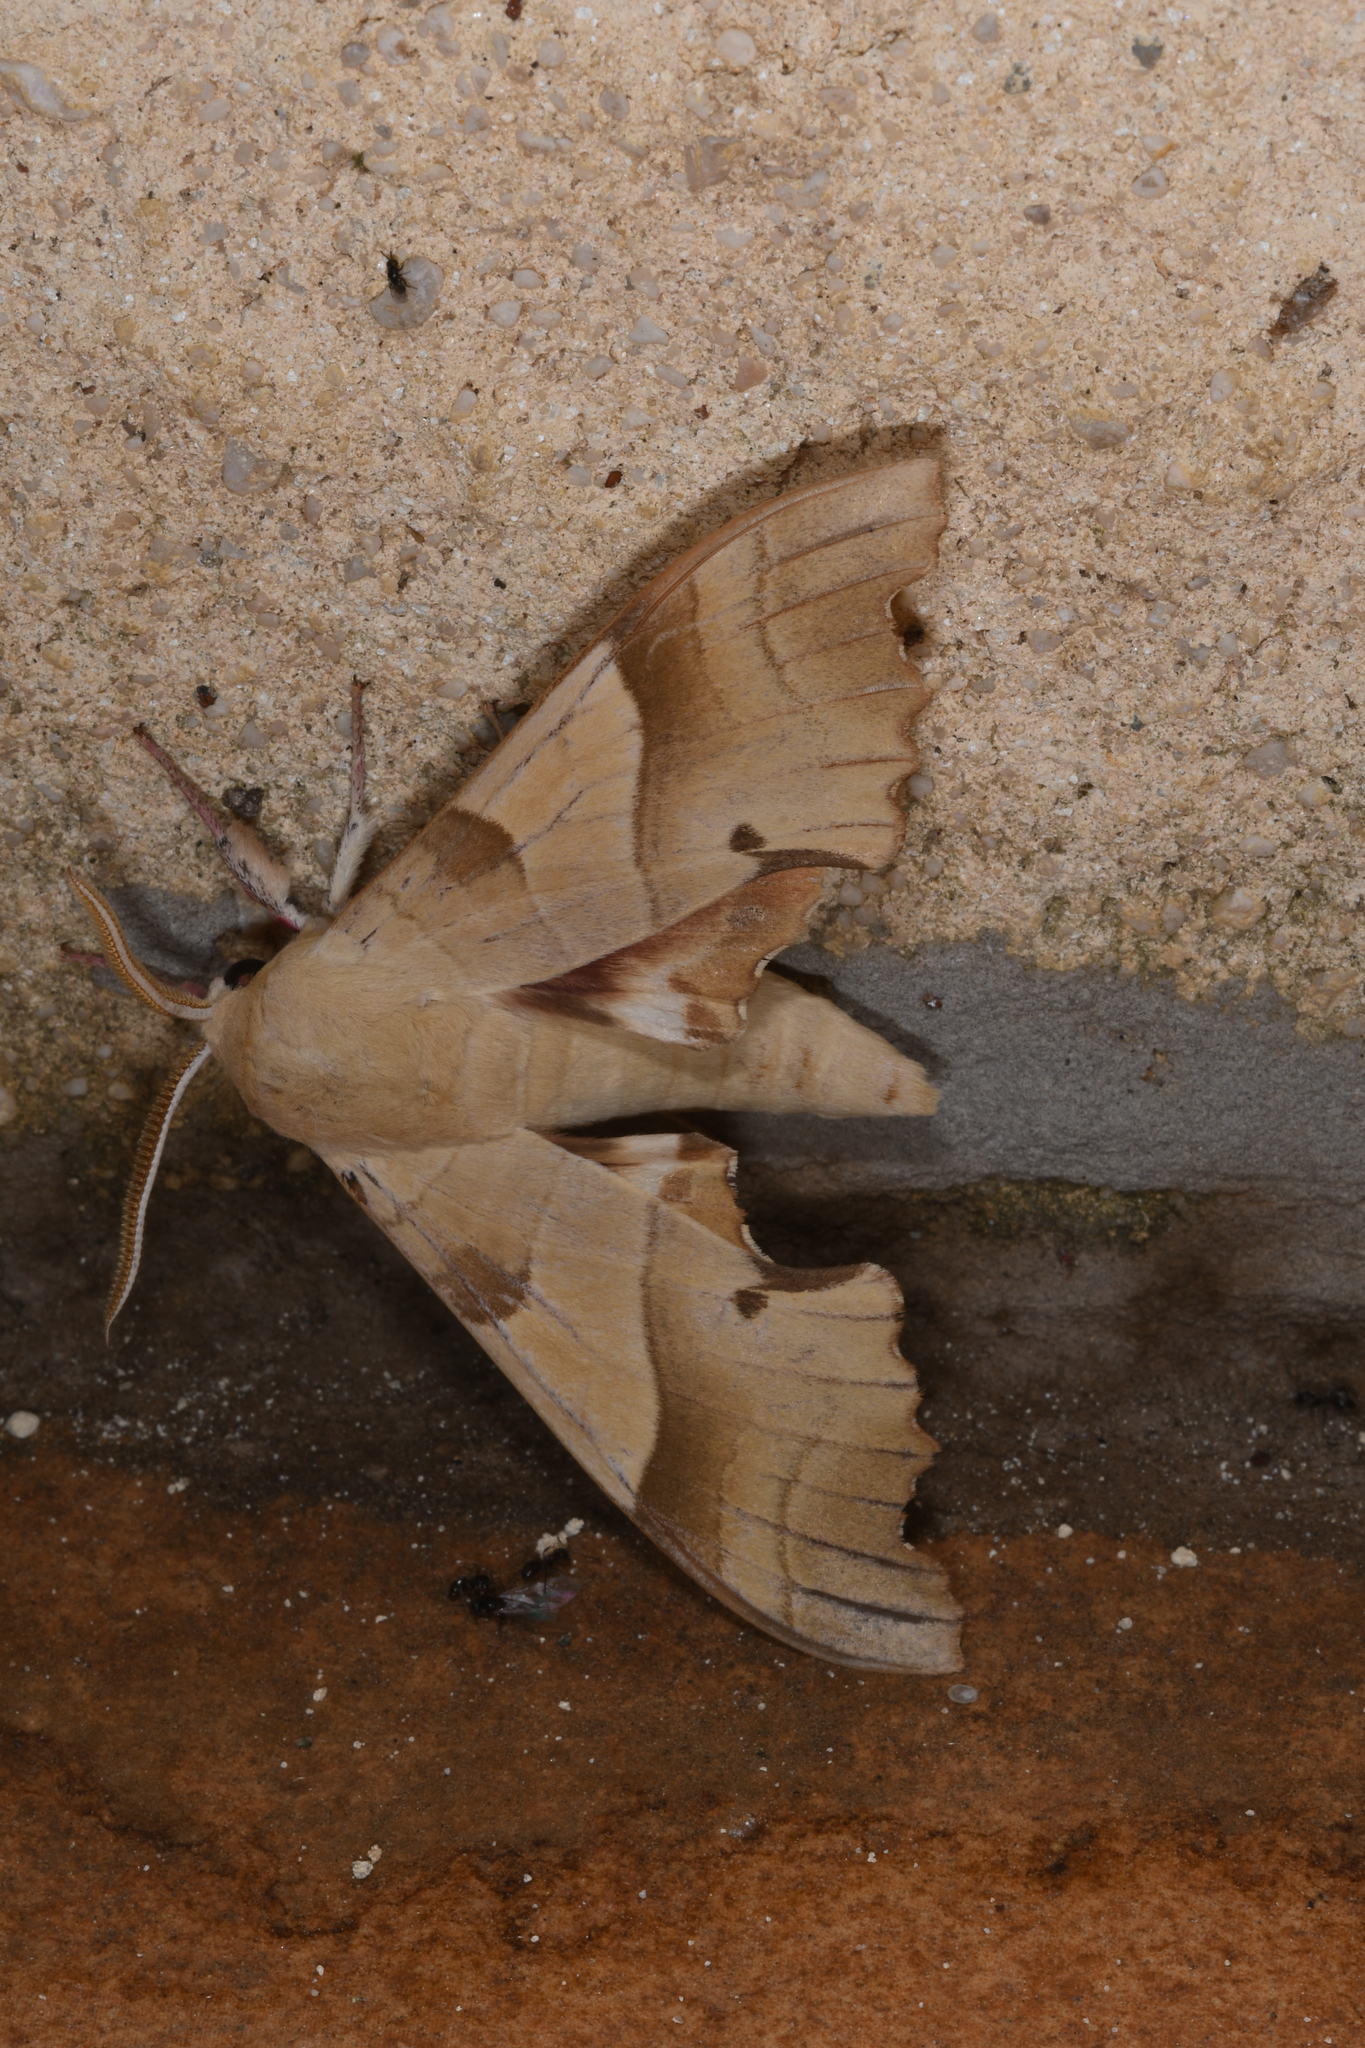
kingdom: Animalia
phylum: Arthropoda
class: Insecta
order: Lepidoptera
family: Sphingidae
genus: Marumba
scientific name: Marumba quercus
